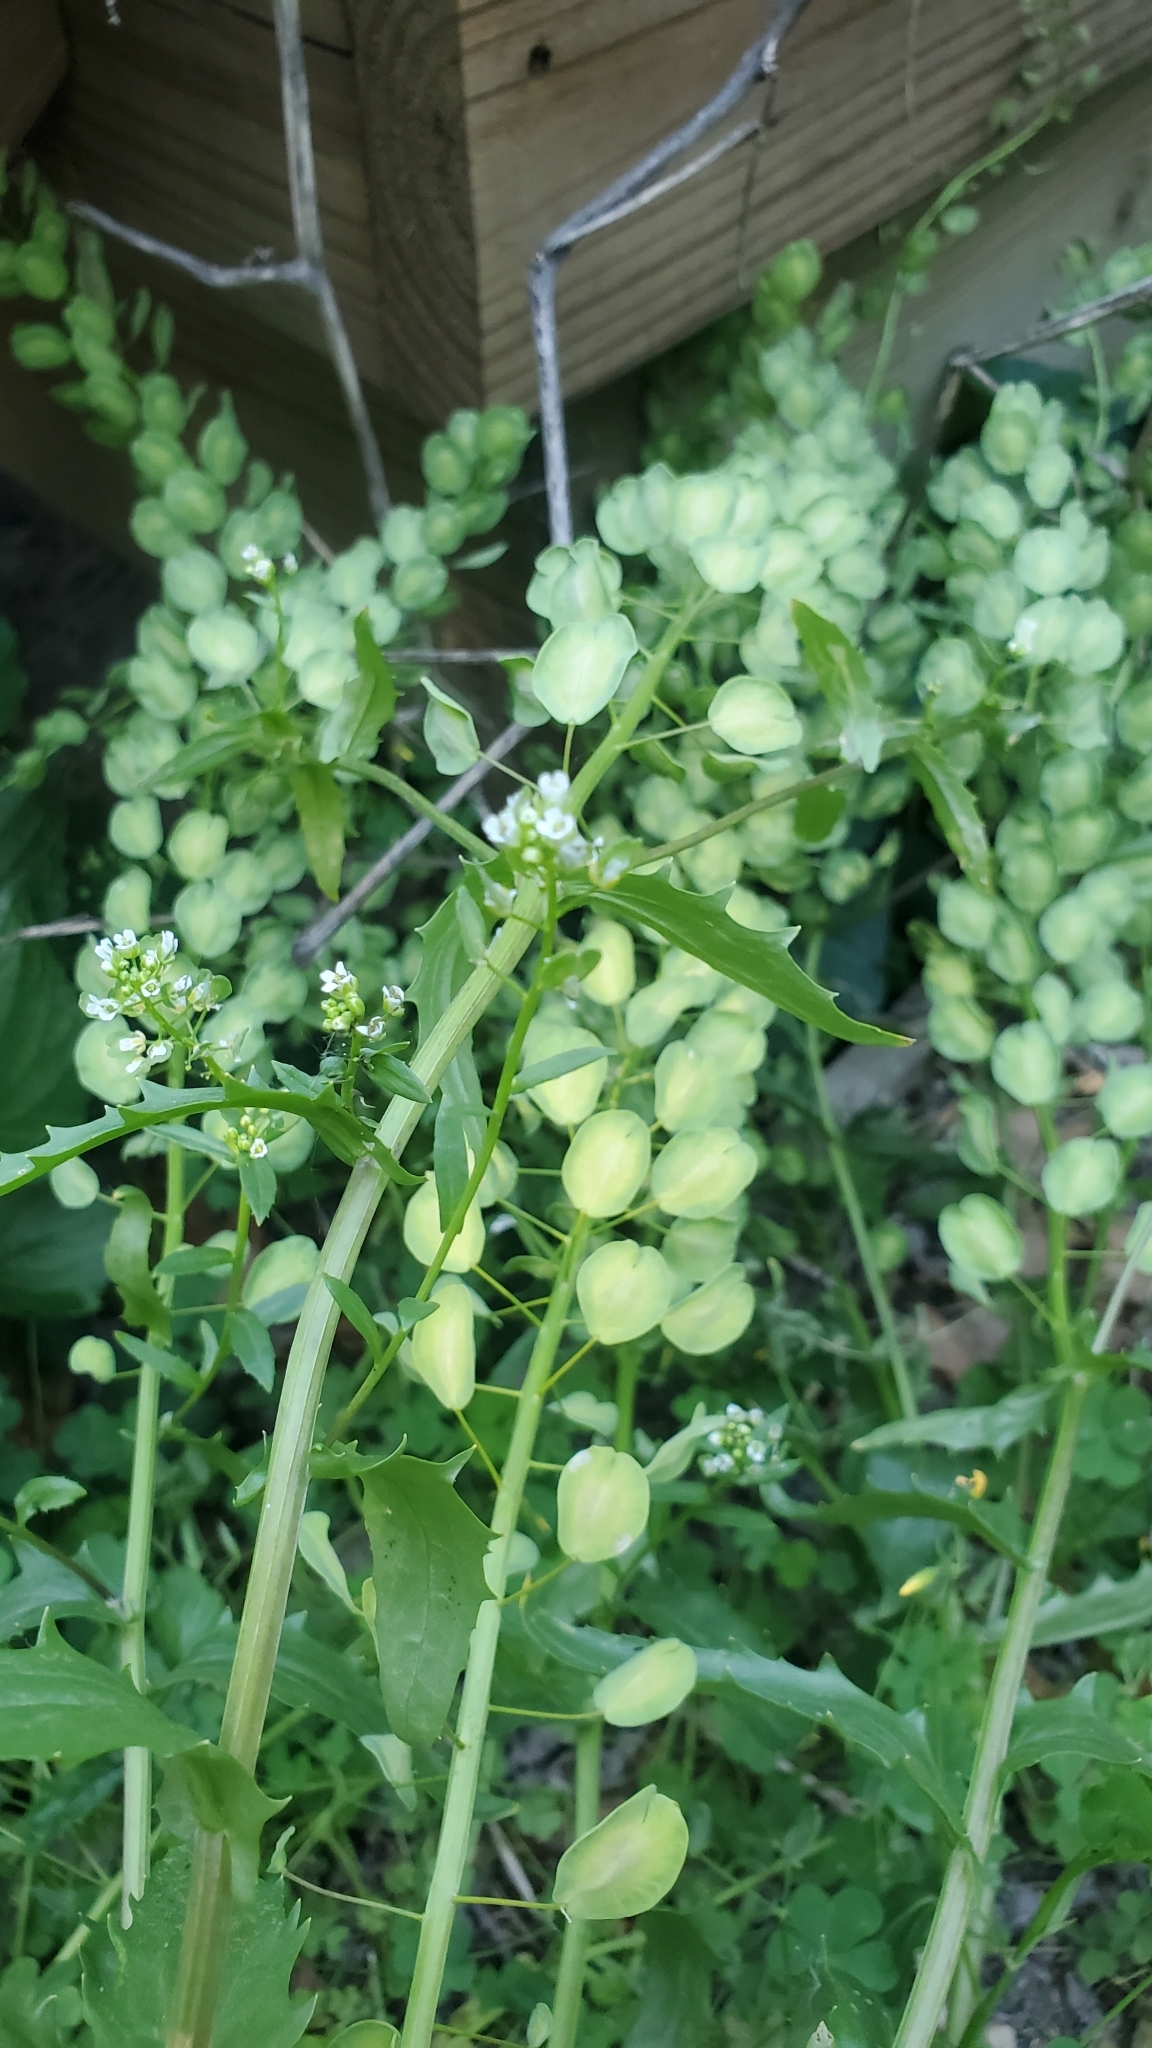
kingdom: Plantae
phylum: Tracheophyta
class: Magnoliopsida
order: Brassicales
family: Brassicaceae
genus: Thlaspi
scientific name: Thlaspi arvense
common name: Field pennycress
